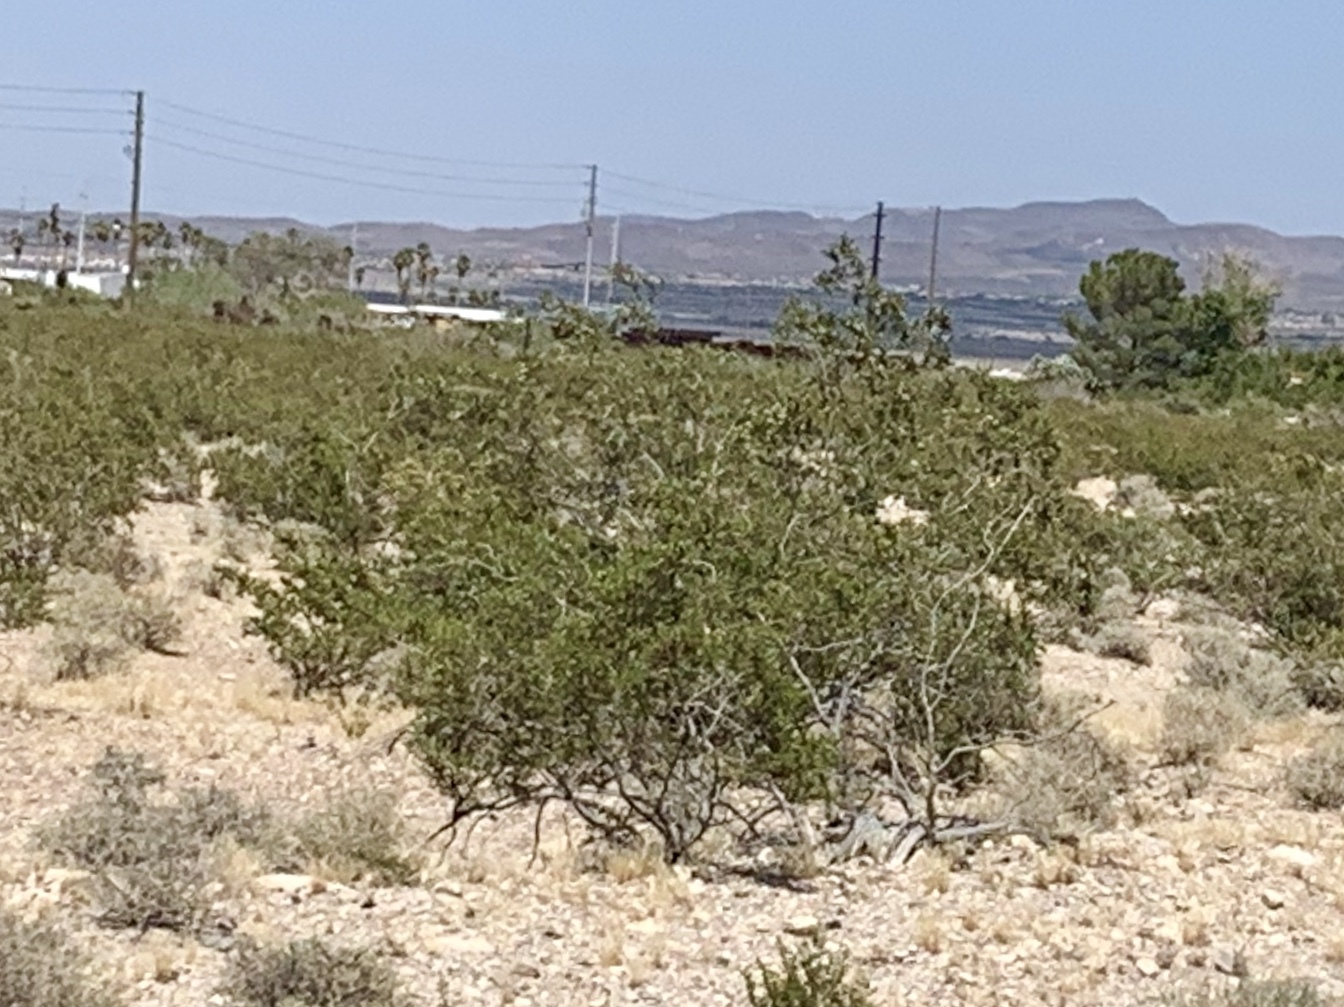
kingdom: Plantae
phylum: Tracheophyta
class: Magnoliopsida
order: Zygophyllales
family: Zygophyllaceae
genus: Larrea
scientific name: Larrea tridentata
